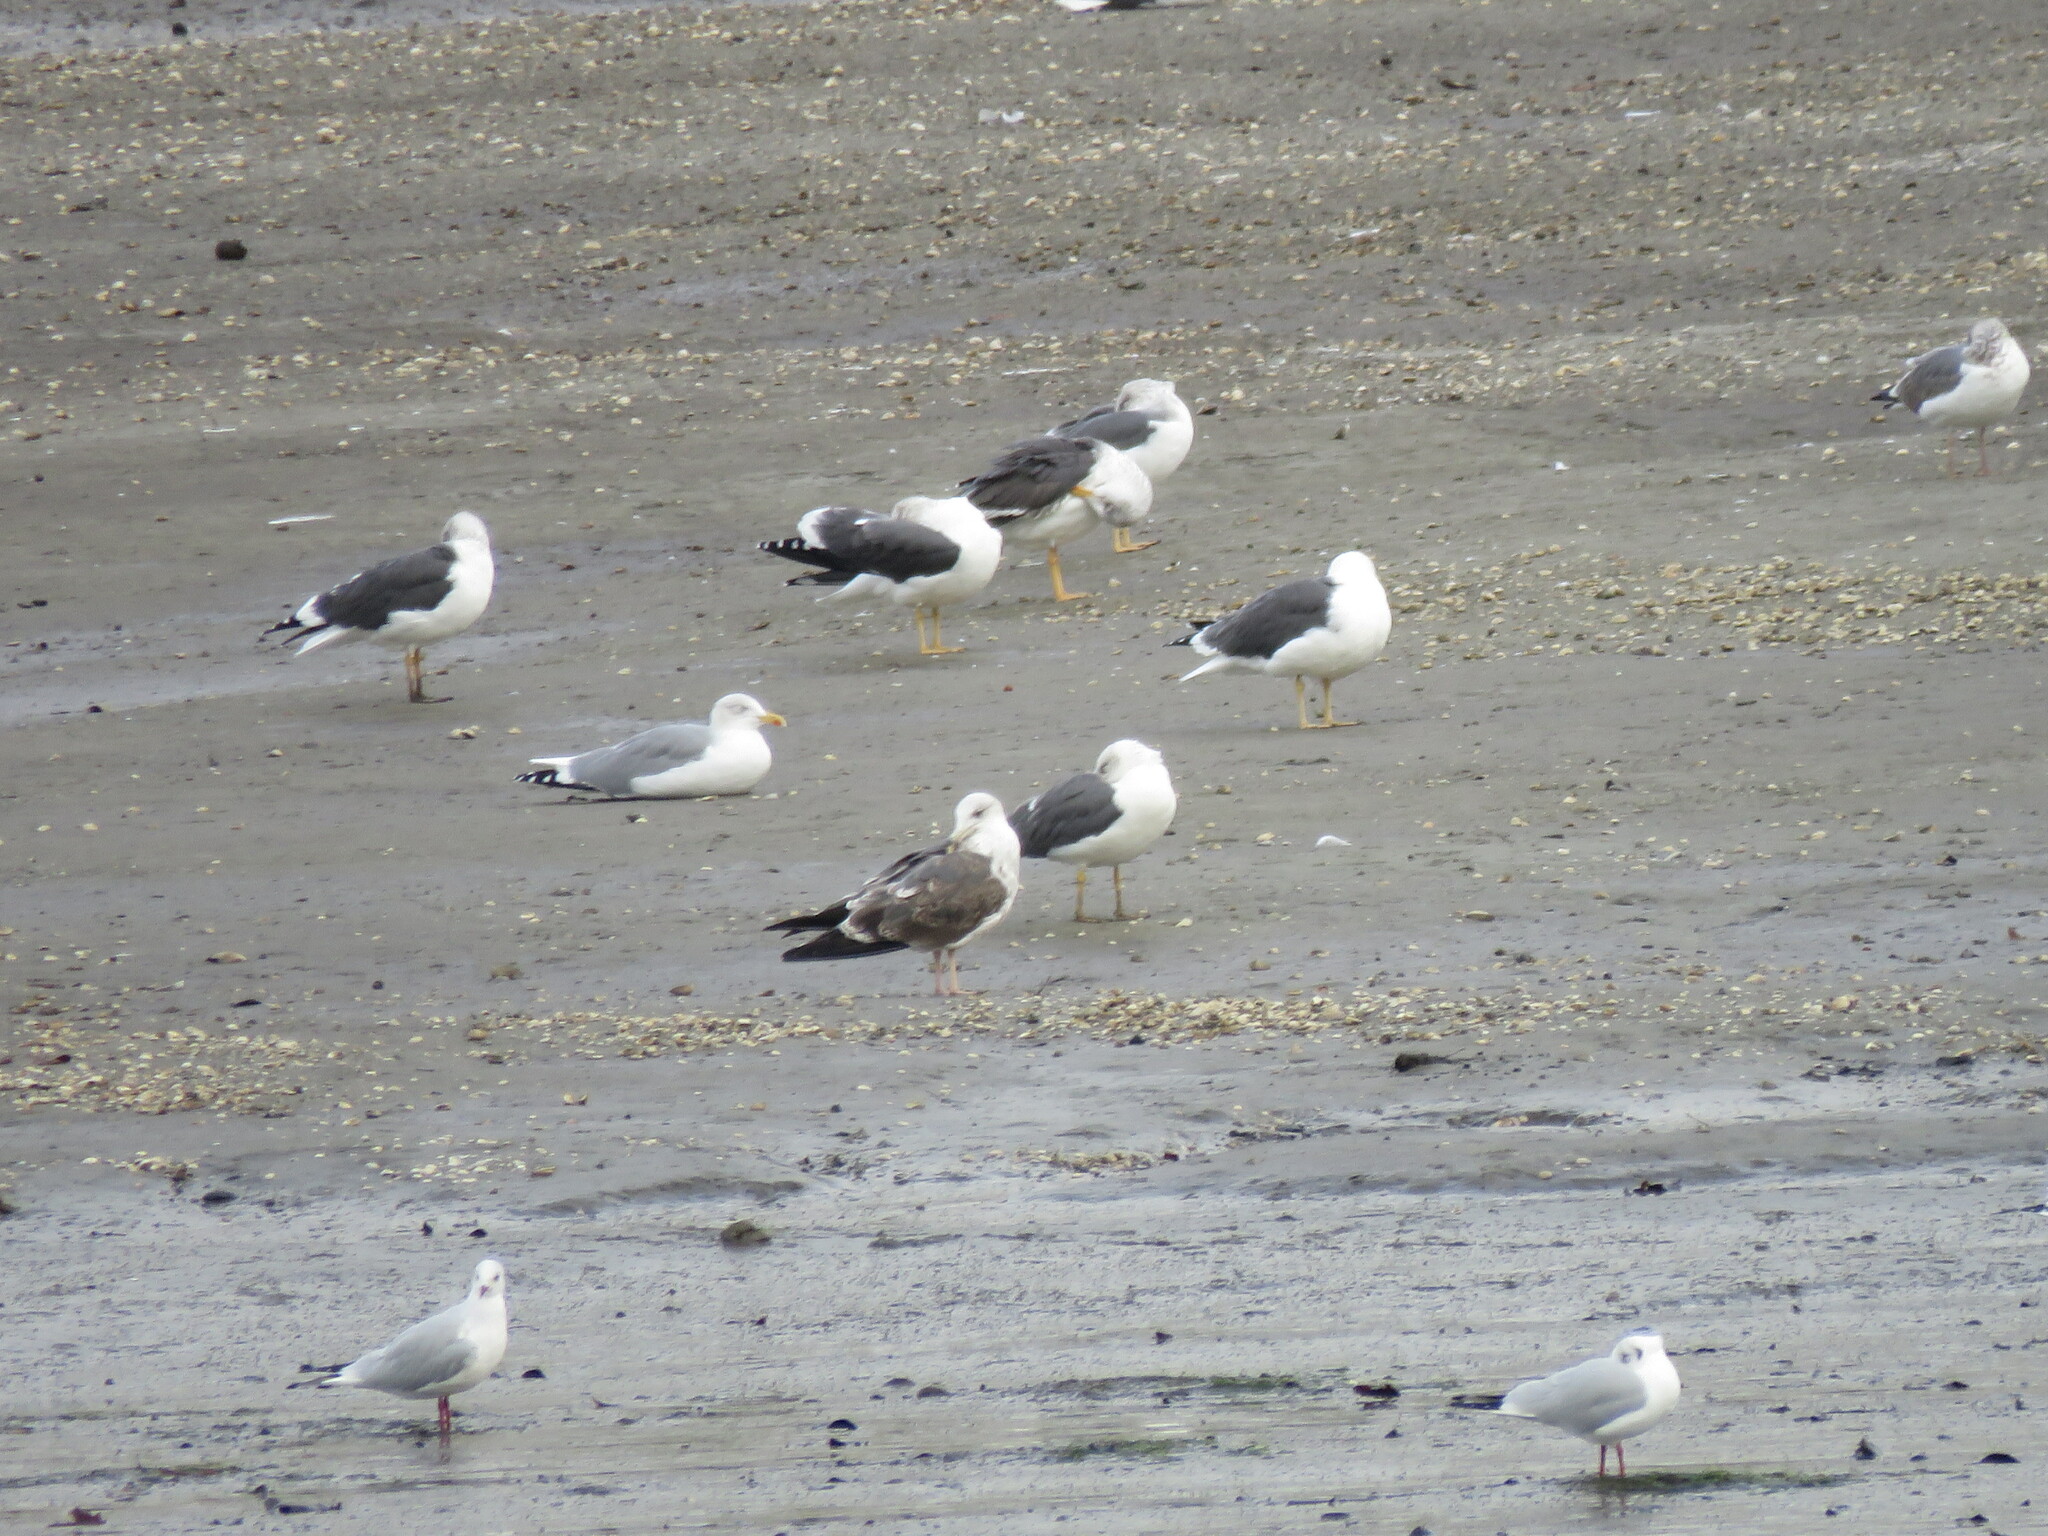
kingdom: Animalia
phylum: Chordata
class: Aves
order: Charadriiformes
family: Laridae
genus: Larus
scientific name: Larus michahellis
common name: Yellow-legged gull
